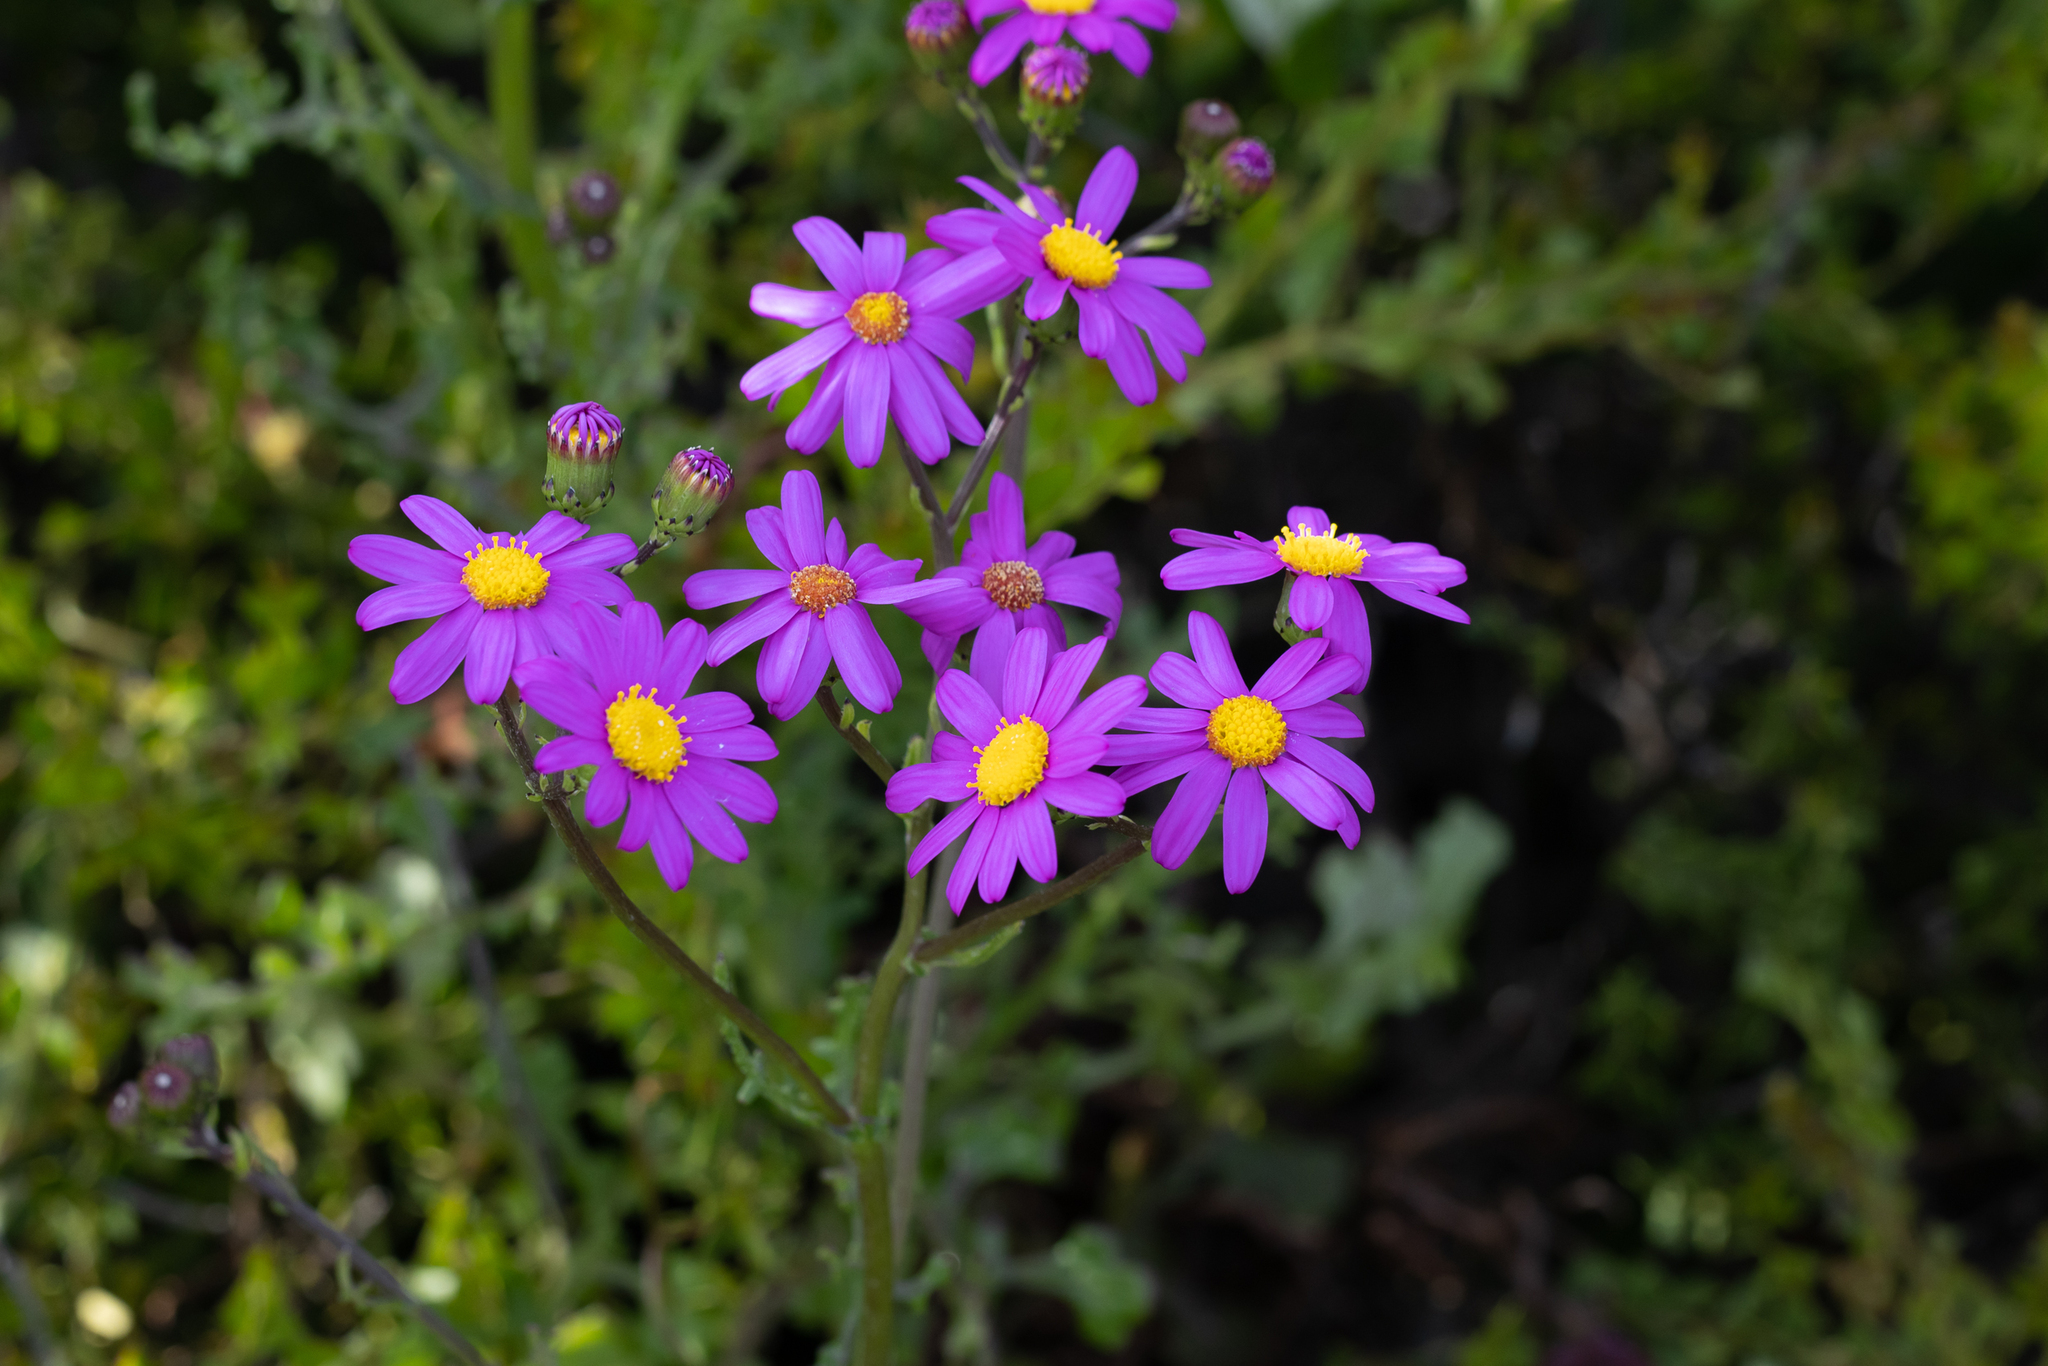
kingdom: Plantae
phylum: Tracheophyta
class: Magnoliopsida
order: Asterales
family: Asteraceae
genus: Senecio
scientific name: Senecio elegans
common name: Purple groundsel
